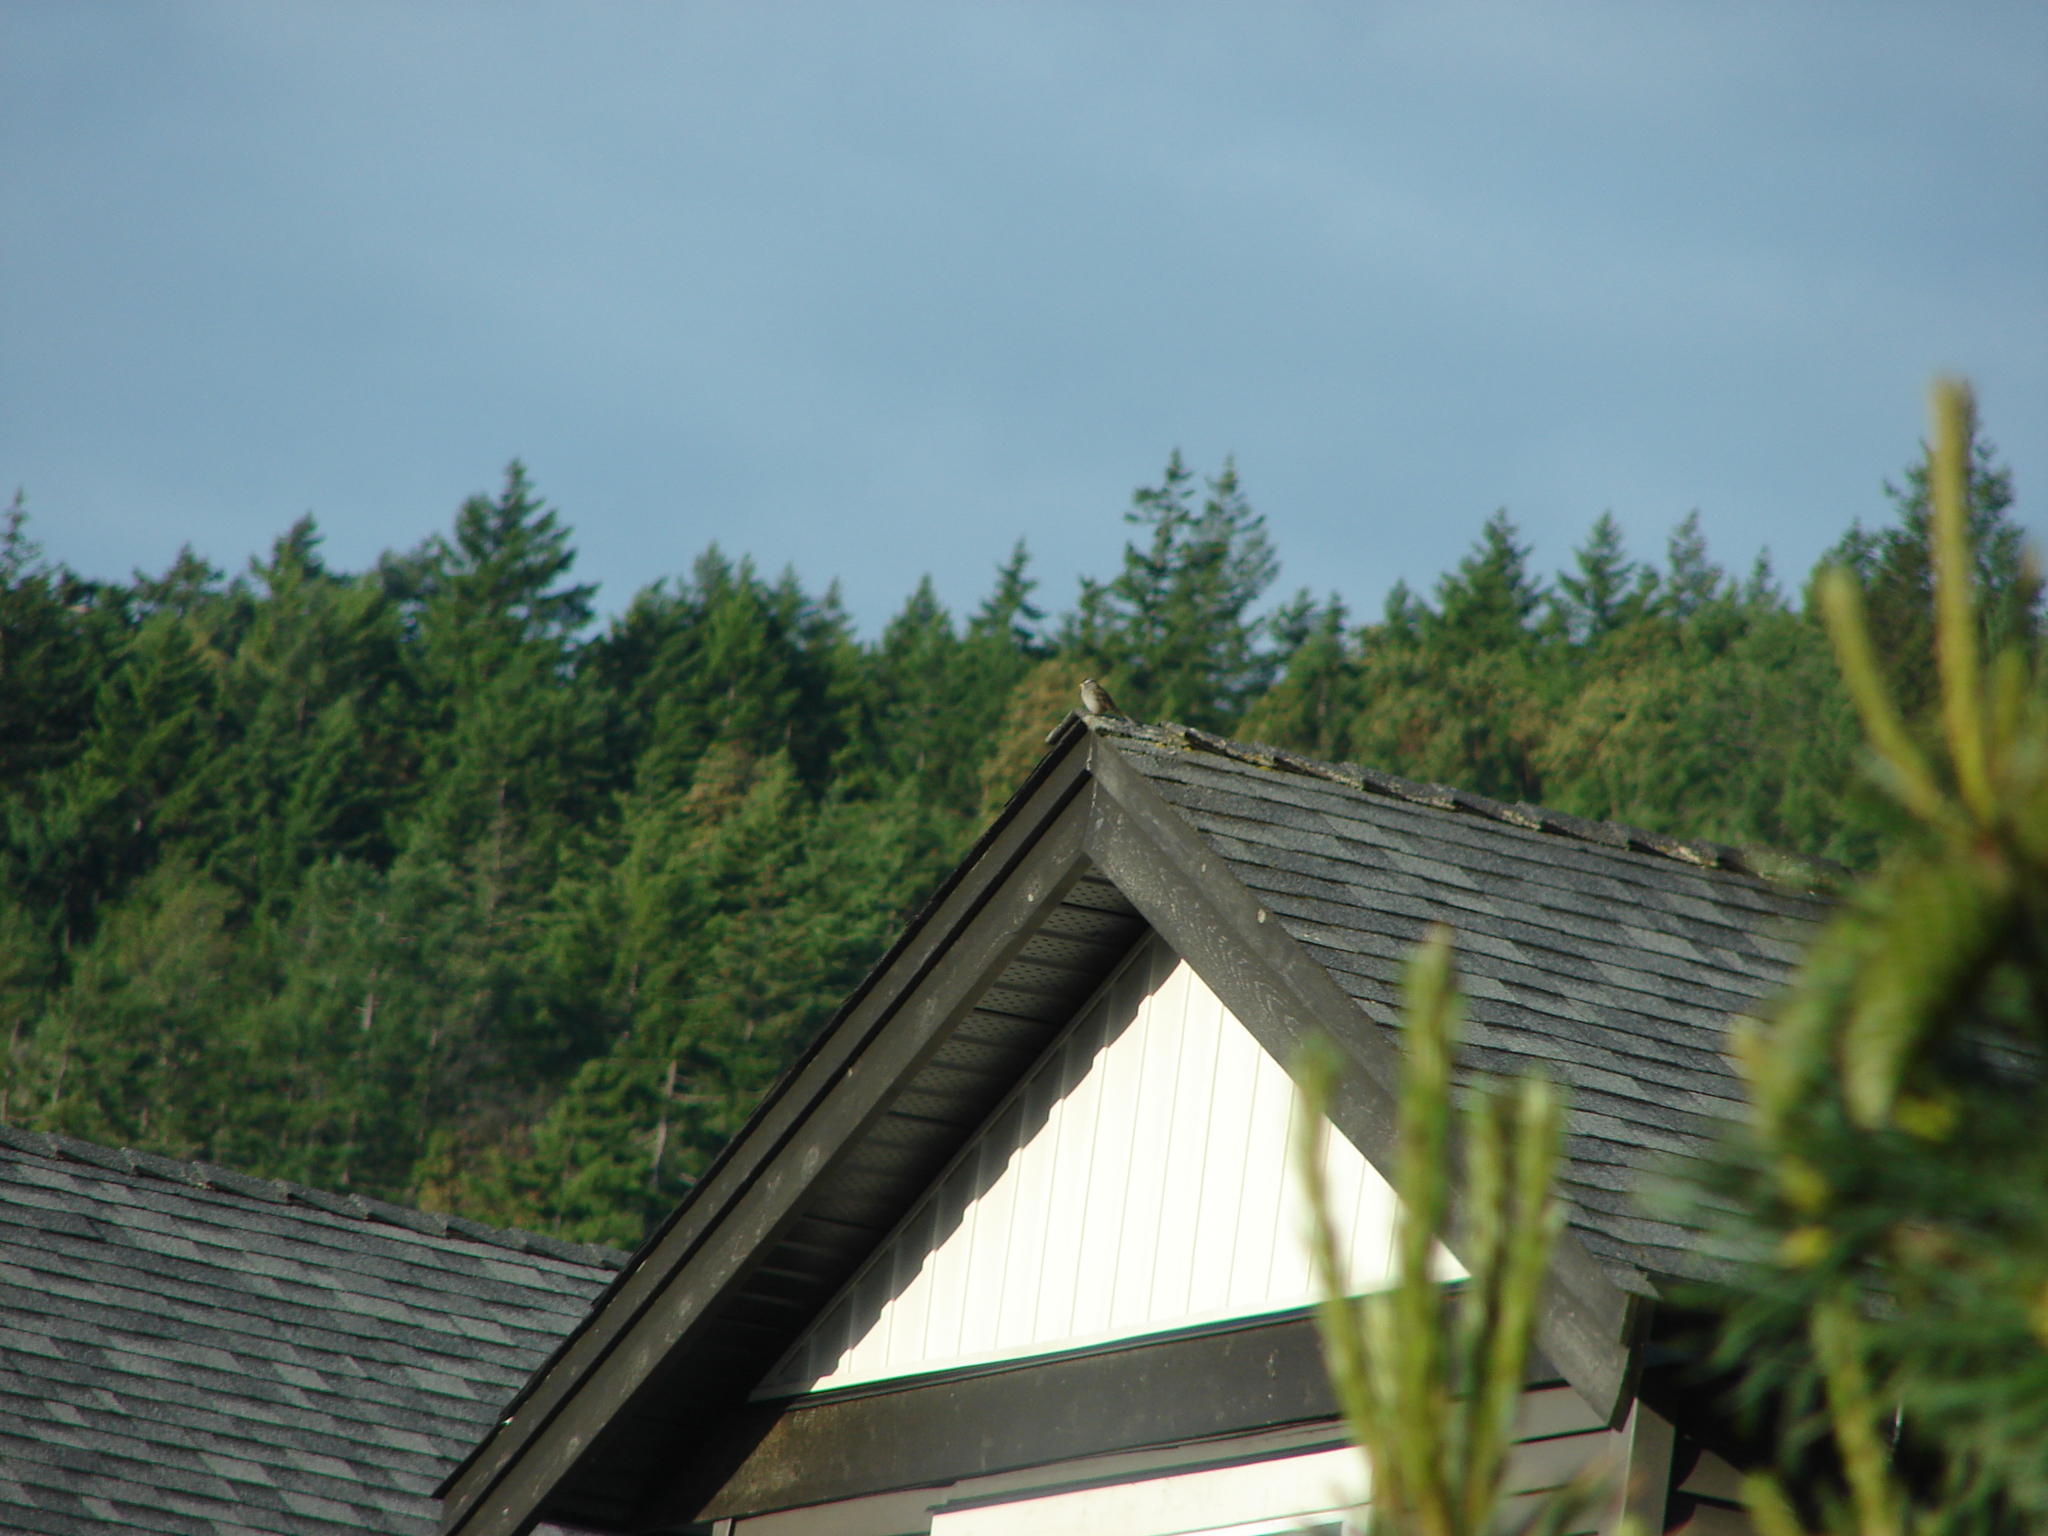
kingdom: Animalia
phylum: Chordata
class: Aves
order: Passeriformes
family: Passerellidae
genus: Zonotrichia
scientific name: Zonotrichia leucophrys
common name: White-crowned sparrow
